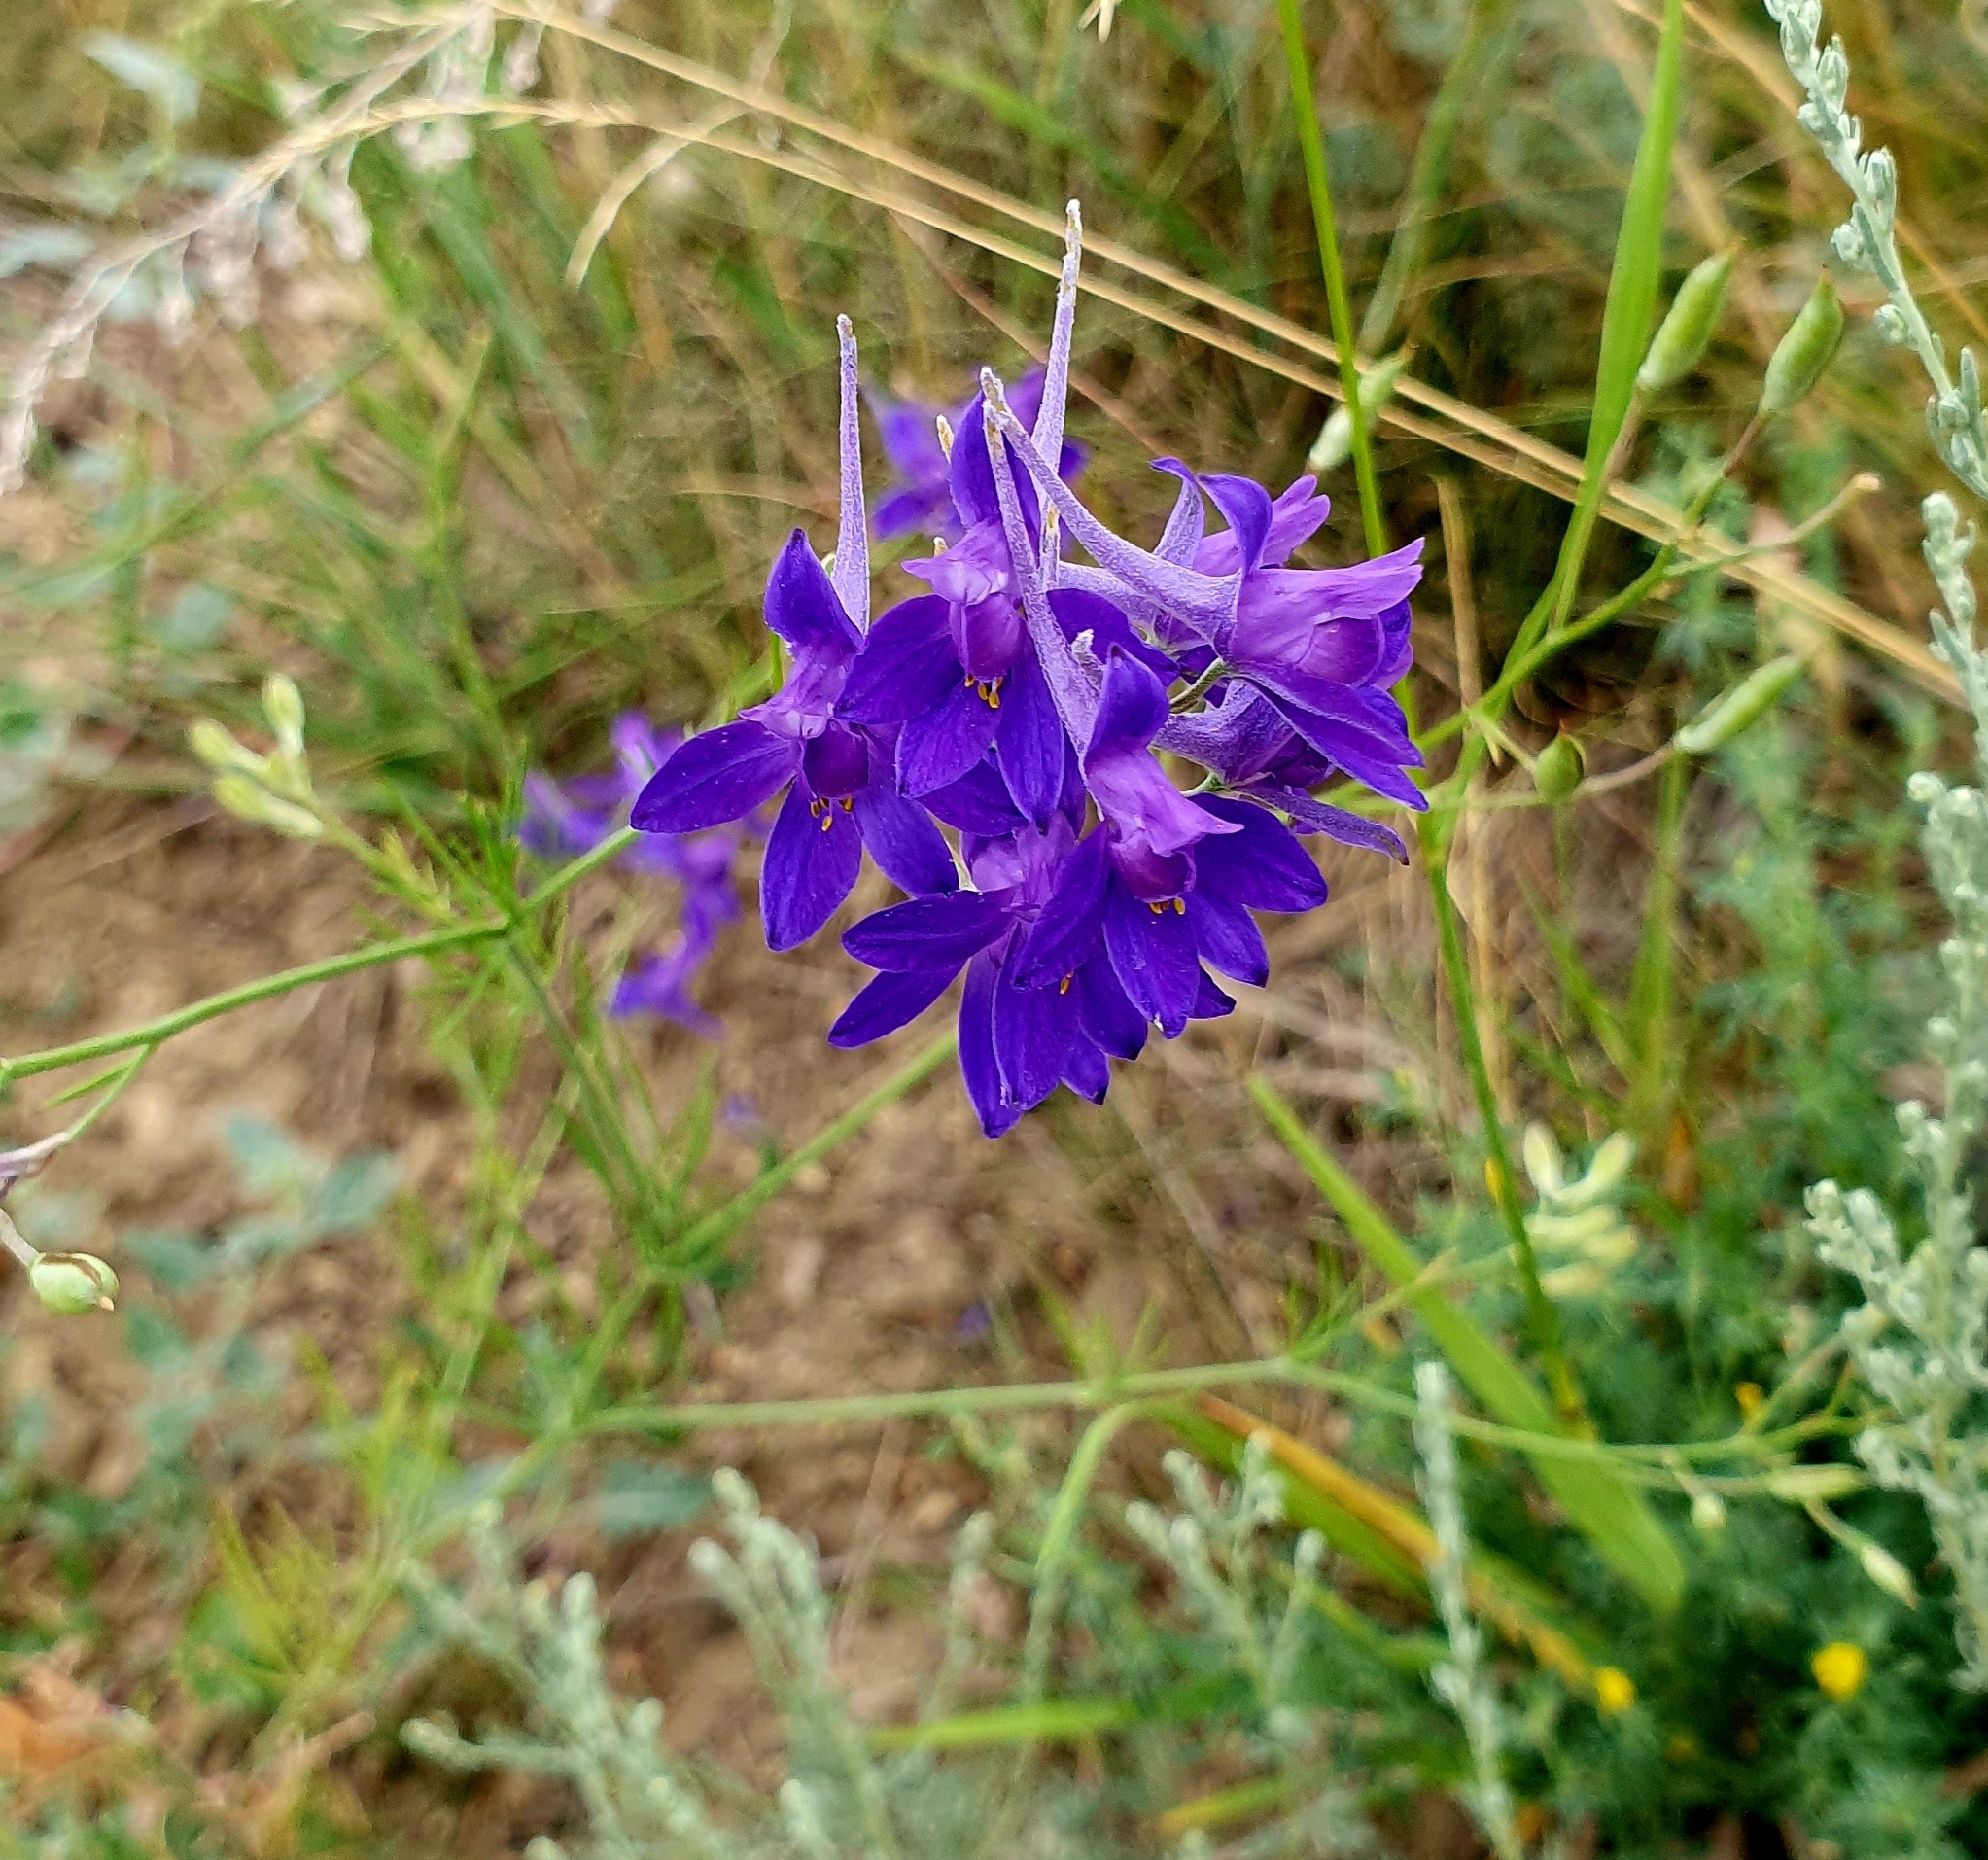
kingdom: Plantae
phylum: Tracheophyta
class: Magnoliopsida
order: Ranunculales
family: Ranunculaceae
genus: Delphinium
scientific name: Delphinium consolida
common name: Branching larkspur
